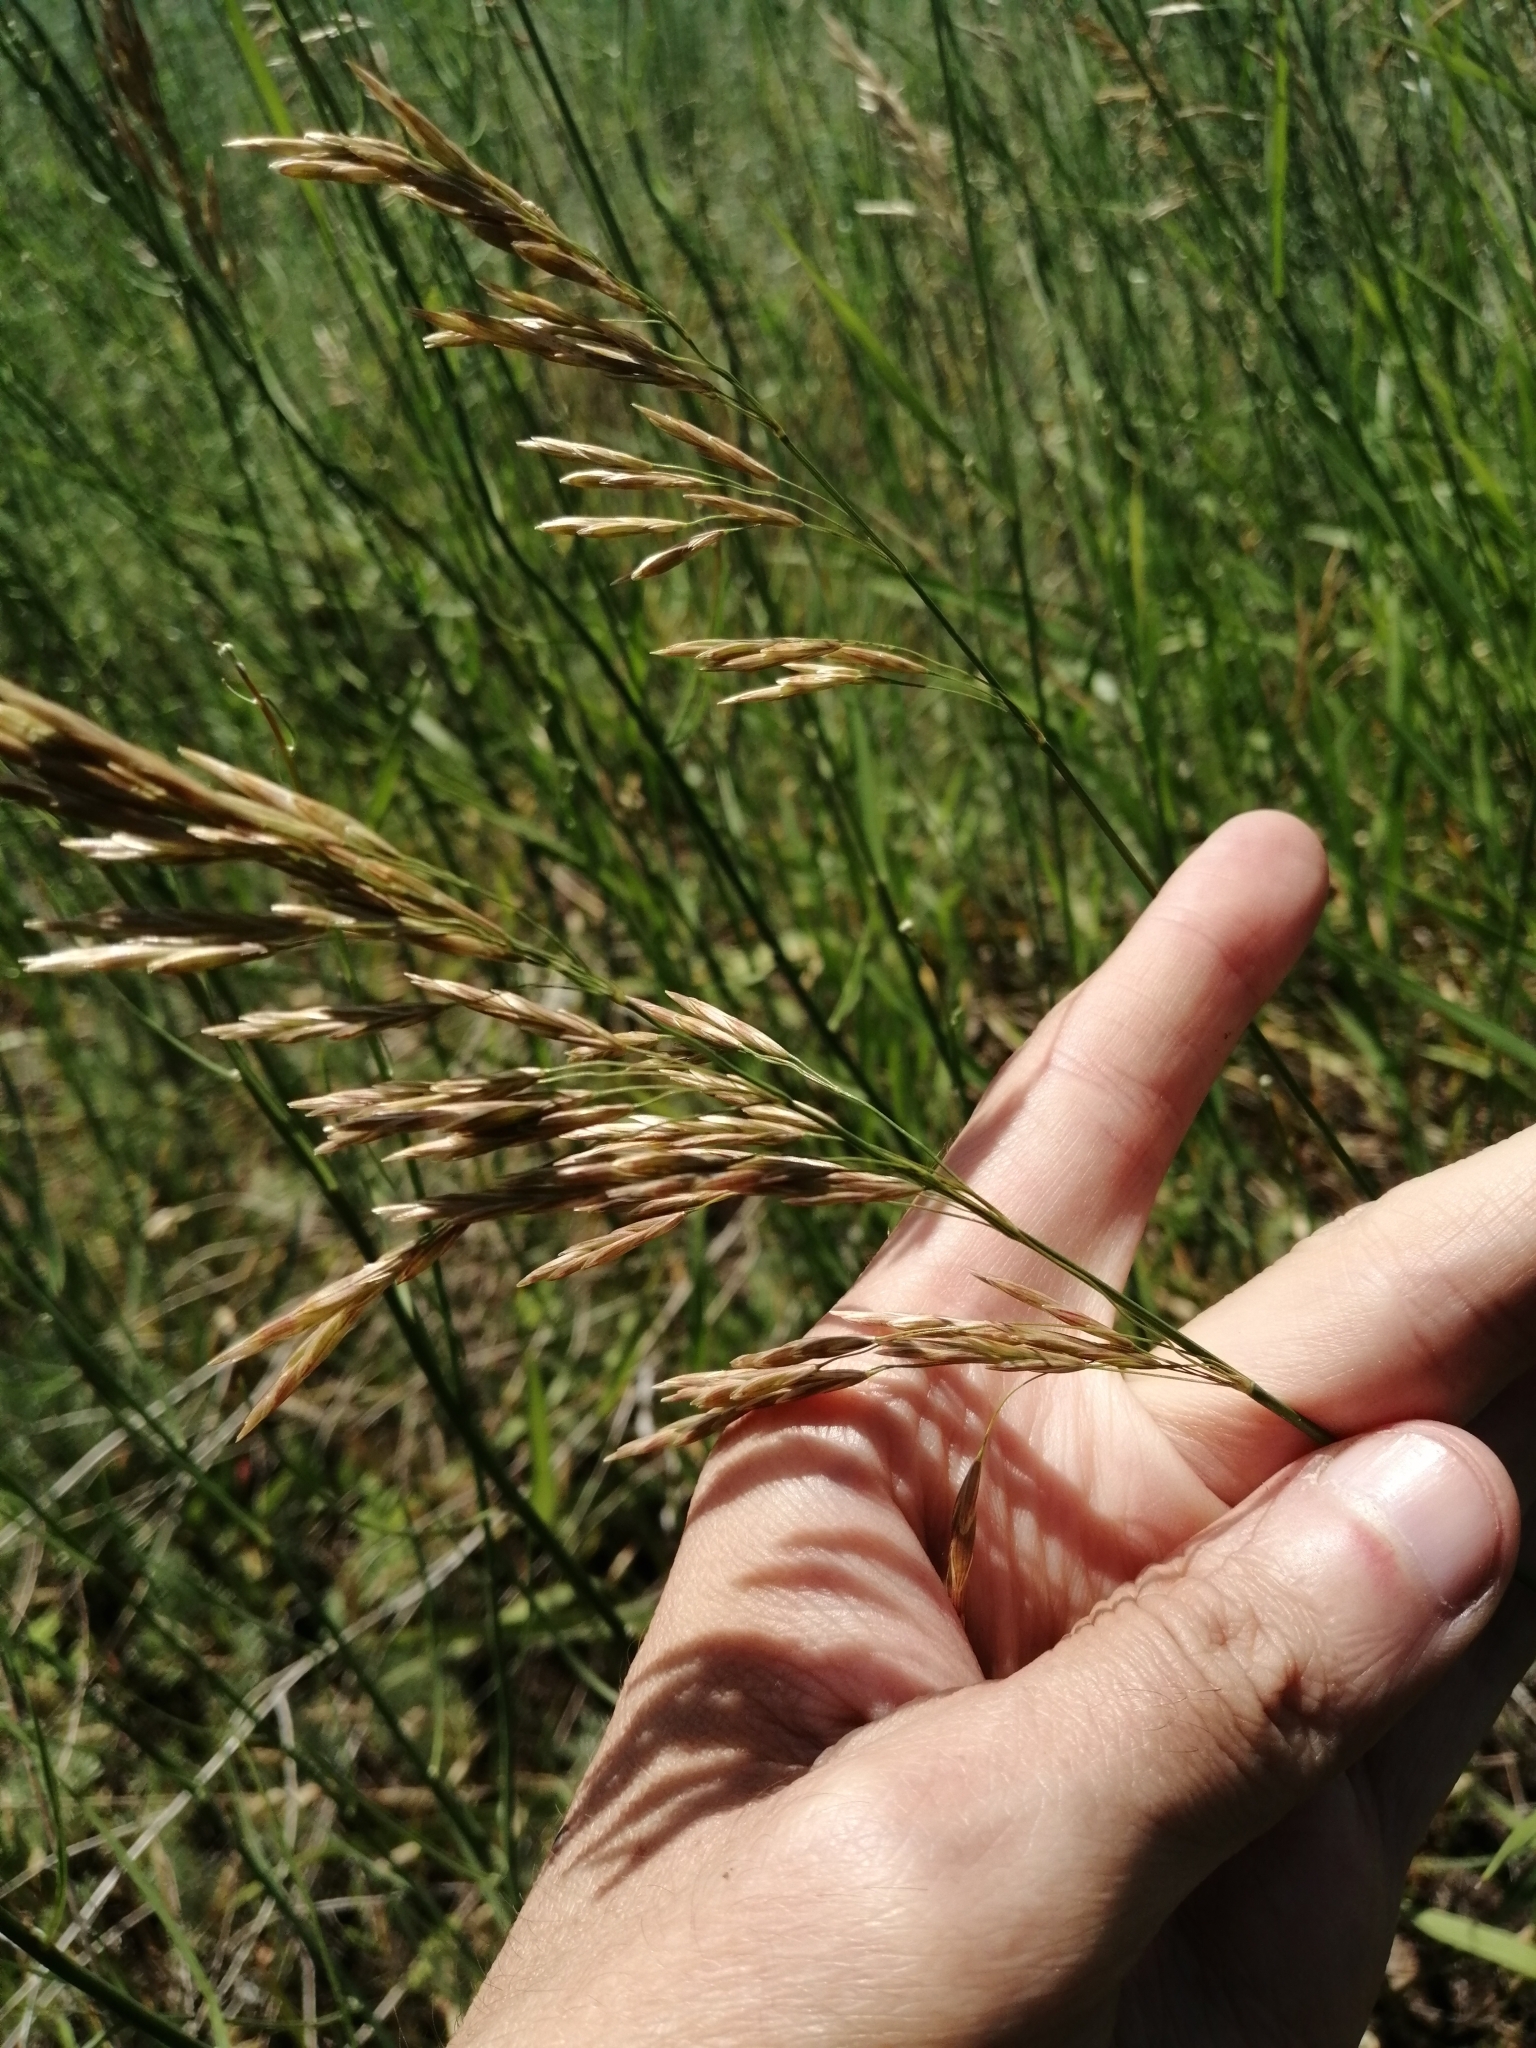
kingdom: Plantae
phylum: Tracheophyta
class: Liliopsida
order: Poales
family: Poaceae
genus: Bromus
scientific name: Bromus inermis
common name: Smooth brome
